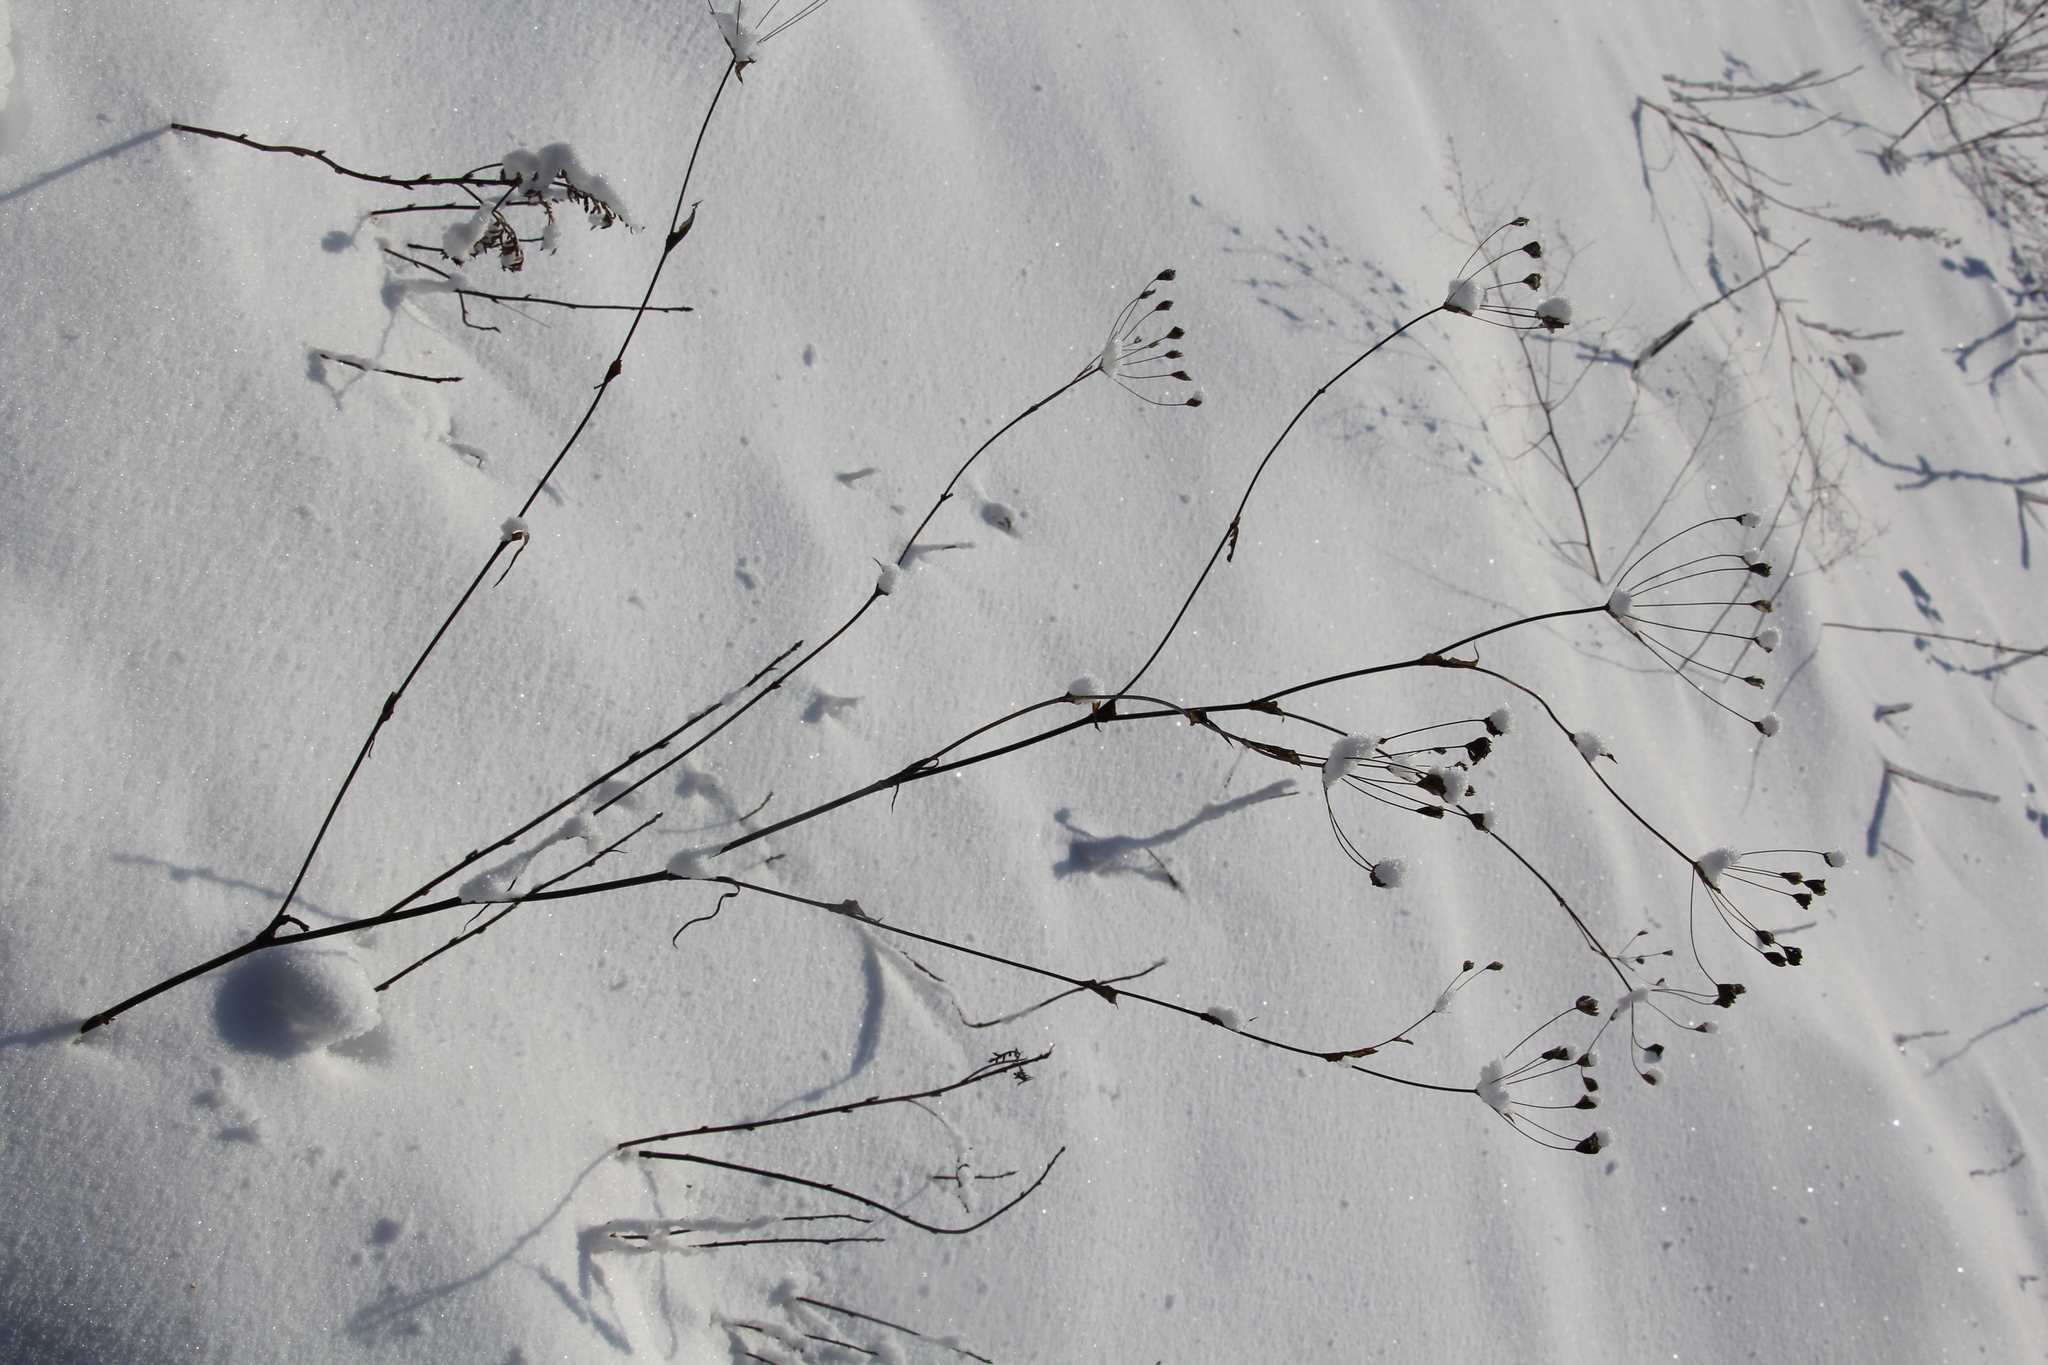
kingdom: Plantae
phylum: Tracheophyta
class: Magnoliopsida
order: Apiales
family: Apiaceae
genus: Bupleurum
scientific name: Bupleurum multinerve
